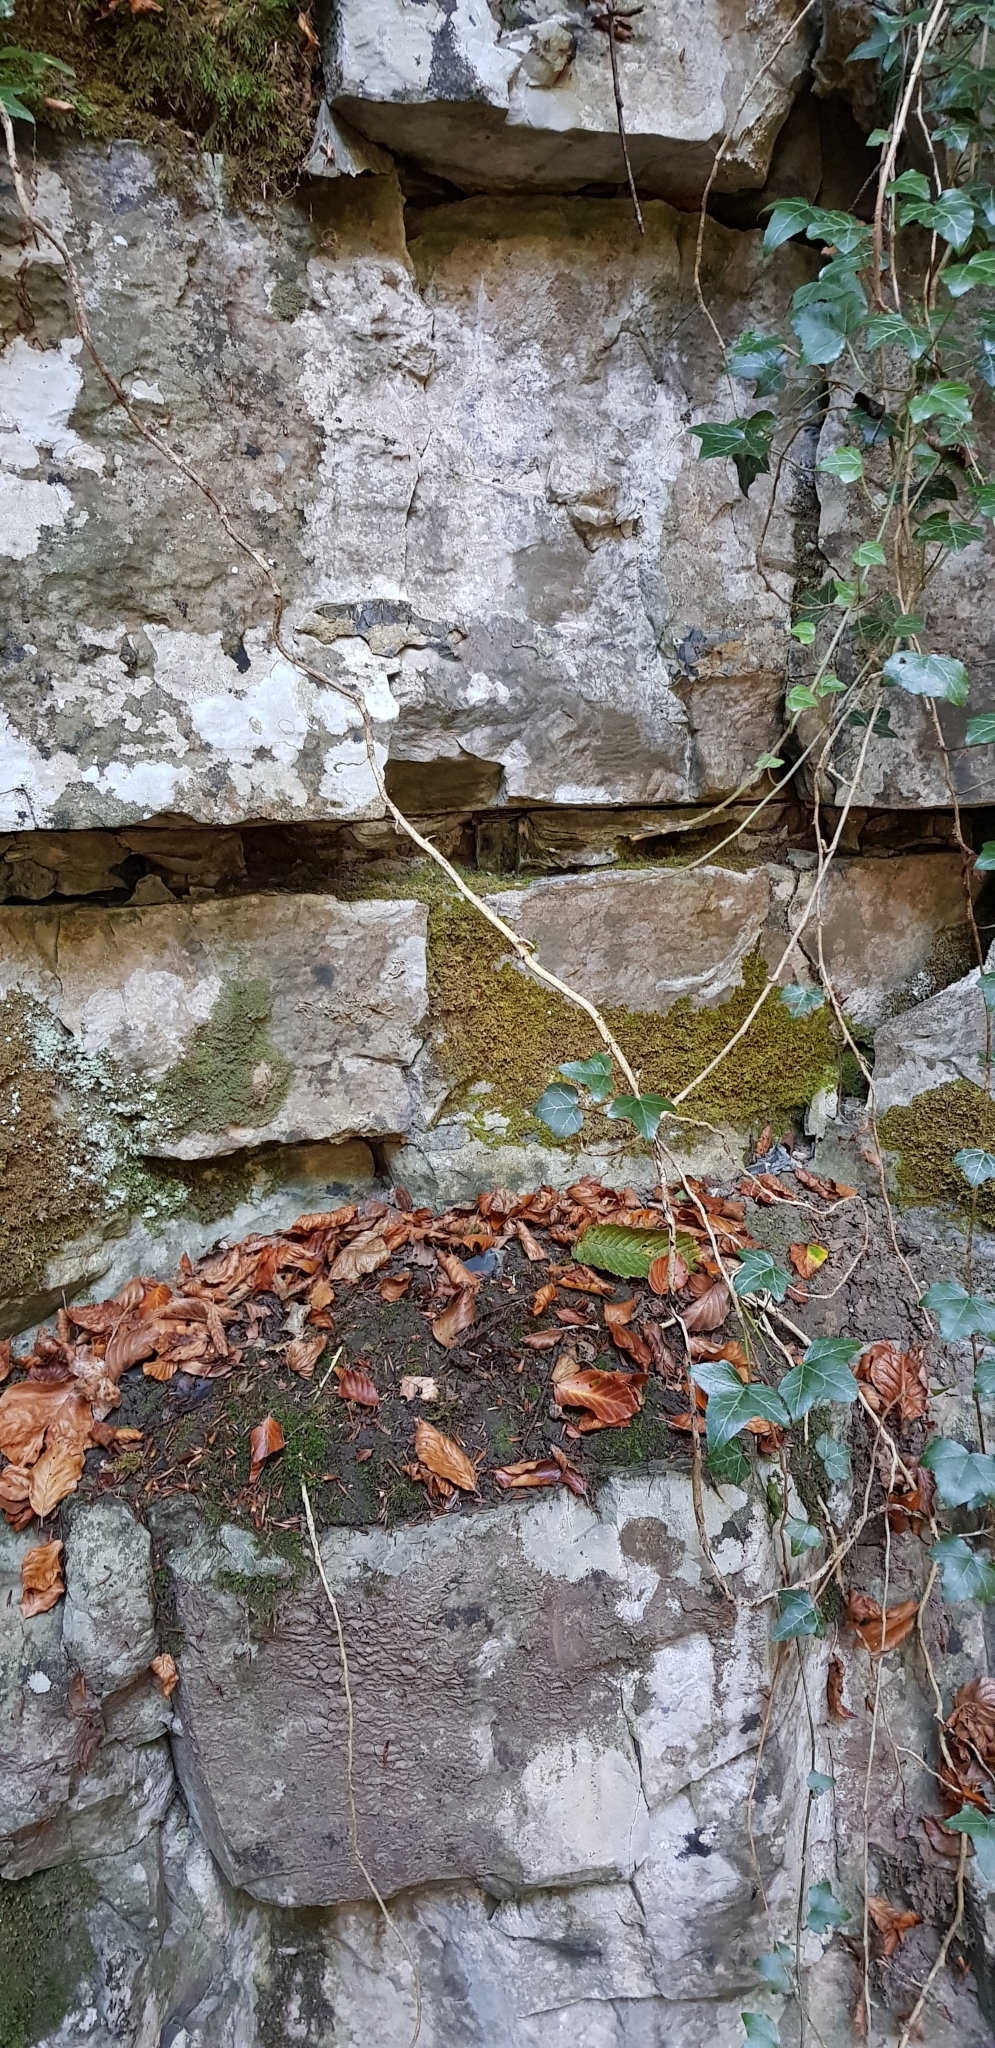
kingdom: Plantae
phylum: Marchantiophyta
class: Jungermanniopsida
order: Metzgeriales
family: Metzgeriaceae
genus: Metzgeria
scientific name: Metzgeria pubescens
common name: Downy veilwort
